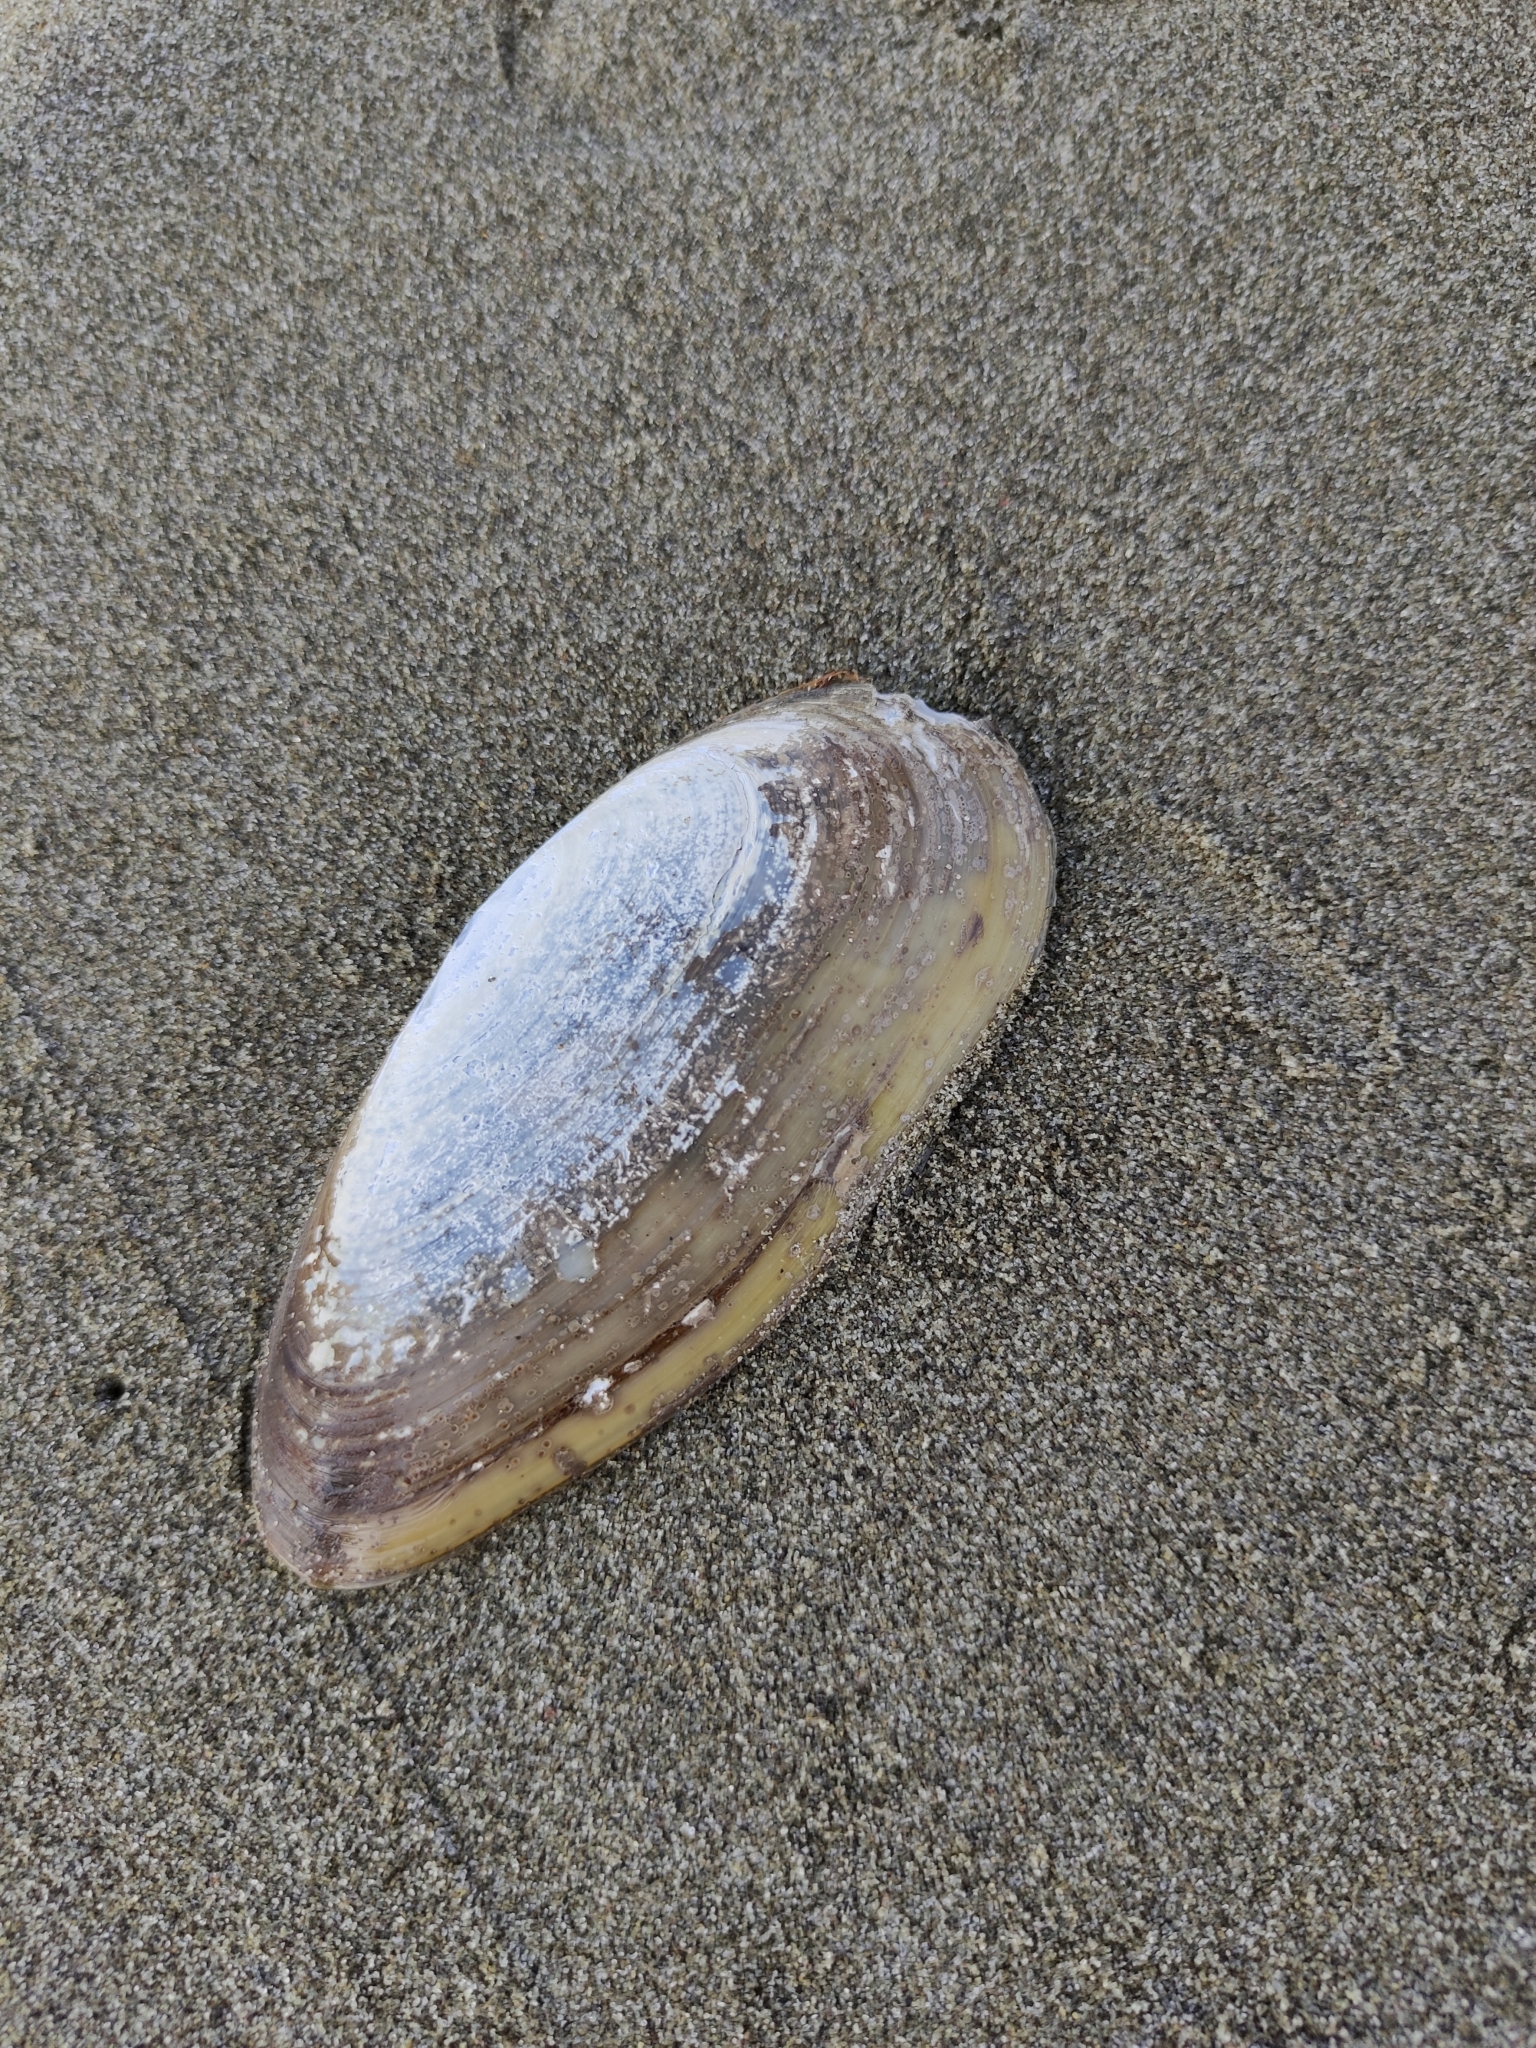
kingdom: Animalia
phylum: Mollusca
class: Bivalvia
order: Venerida
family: Mactridae
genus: Resania
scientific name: Resania lanceolata
